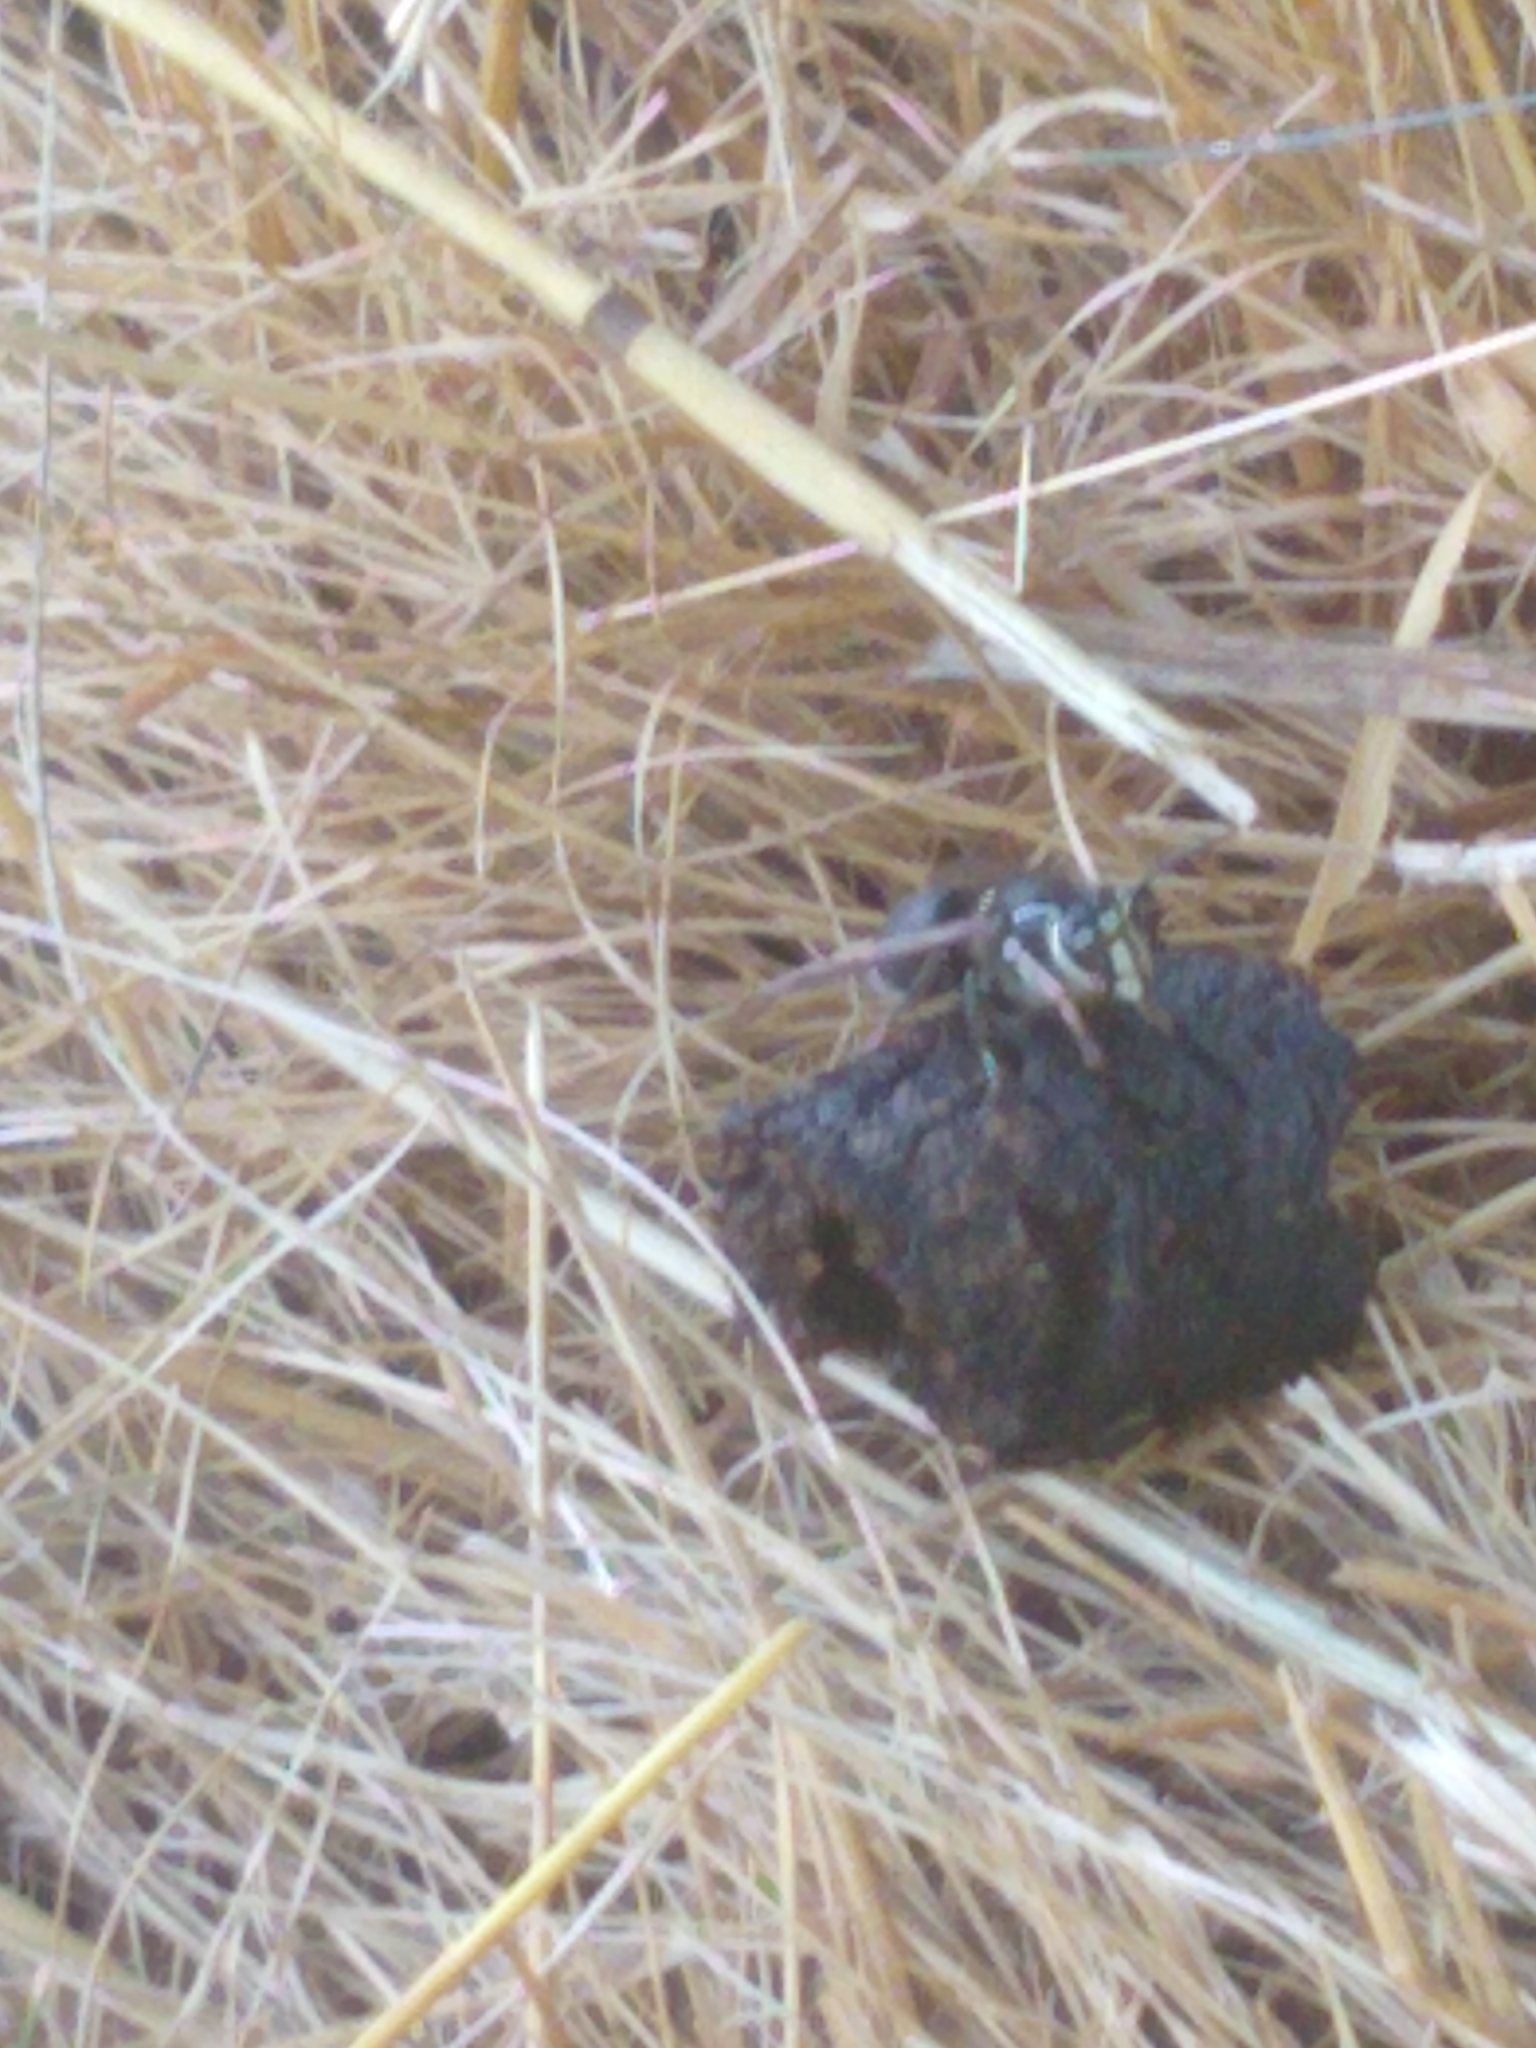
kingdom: Animalia
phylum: Arthropoda
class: Insecta
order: Hymenoptera
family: Vespidae
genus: Dolichovespula
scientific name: Dolichovespula maculata
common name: Bald-faced hornet
